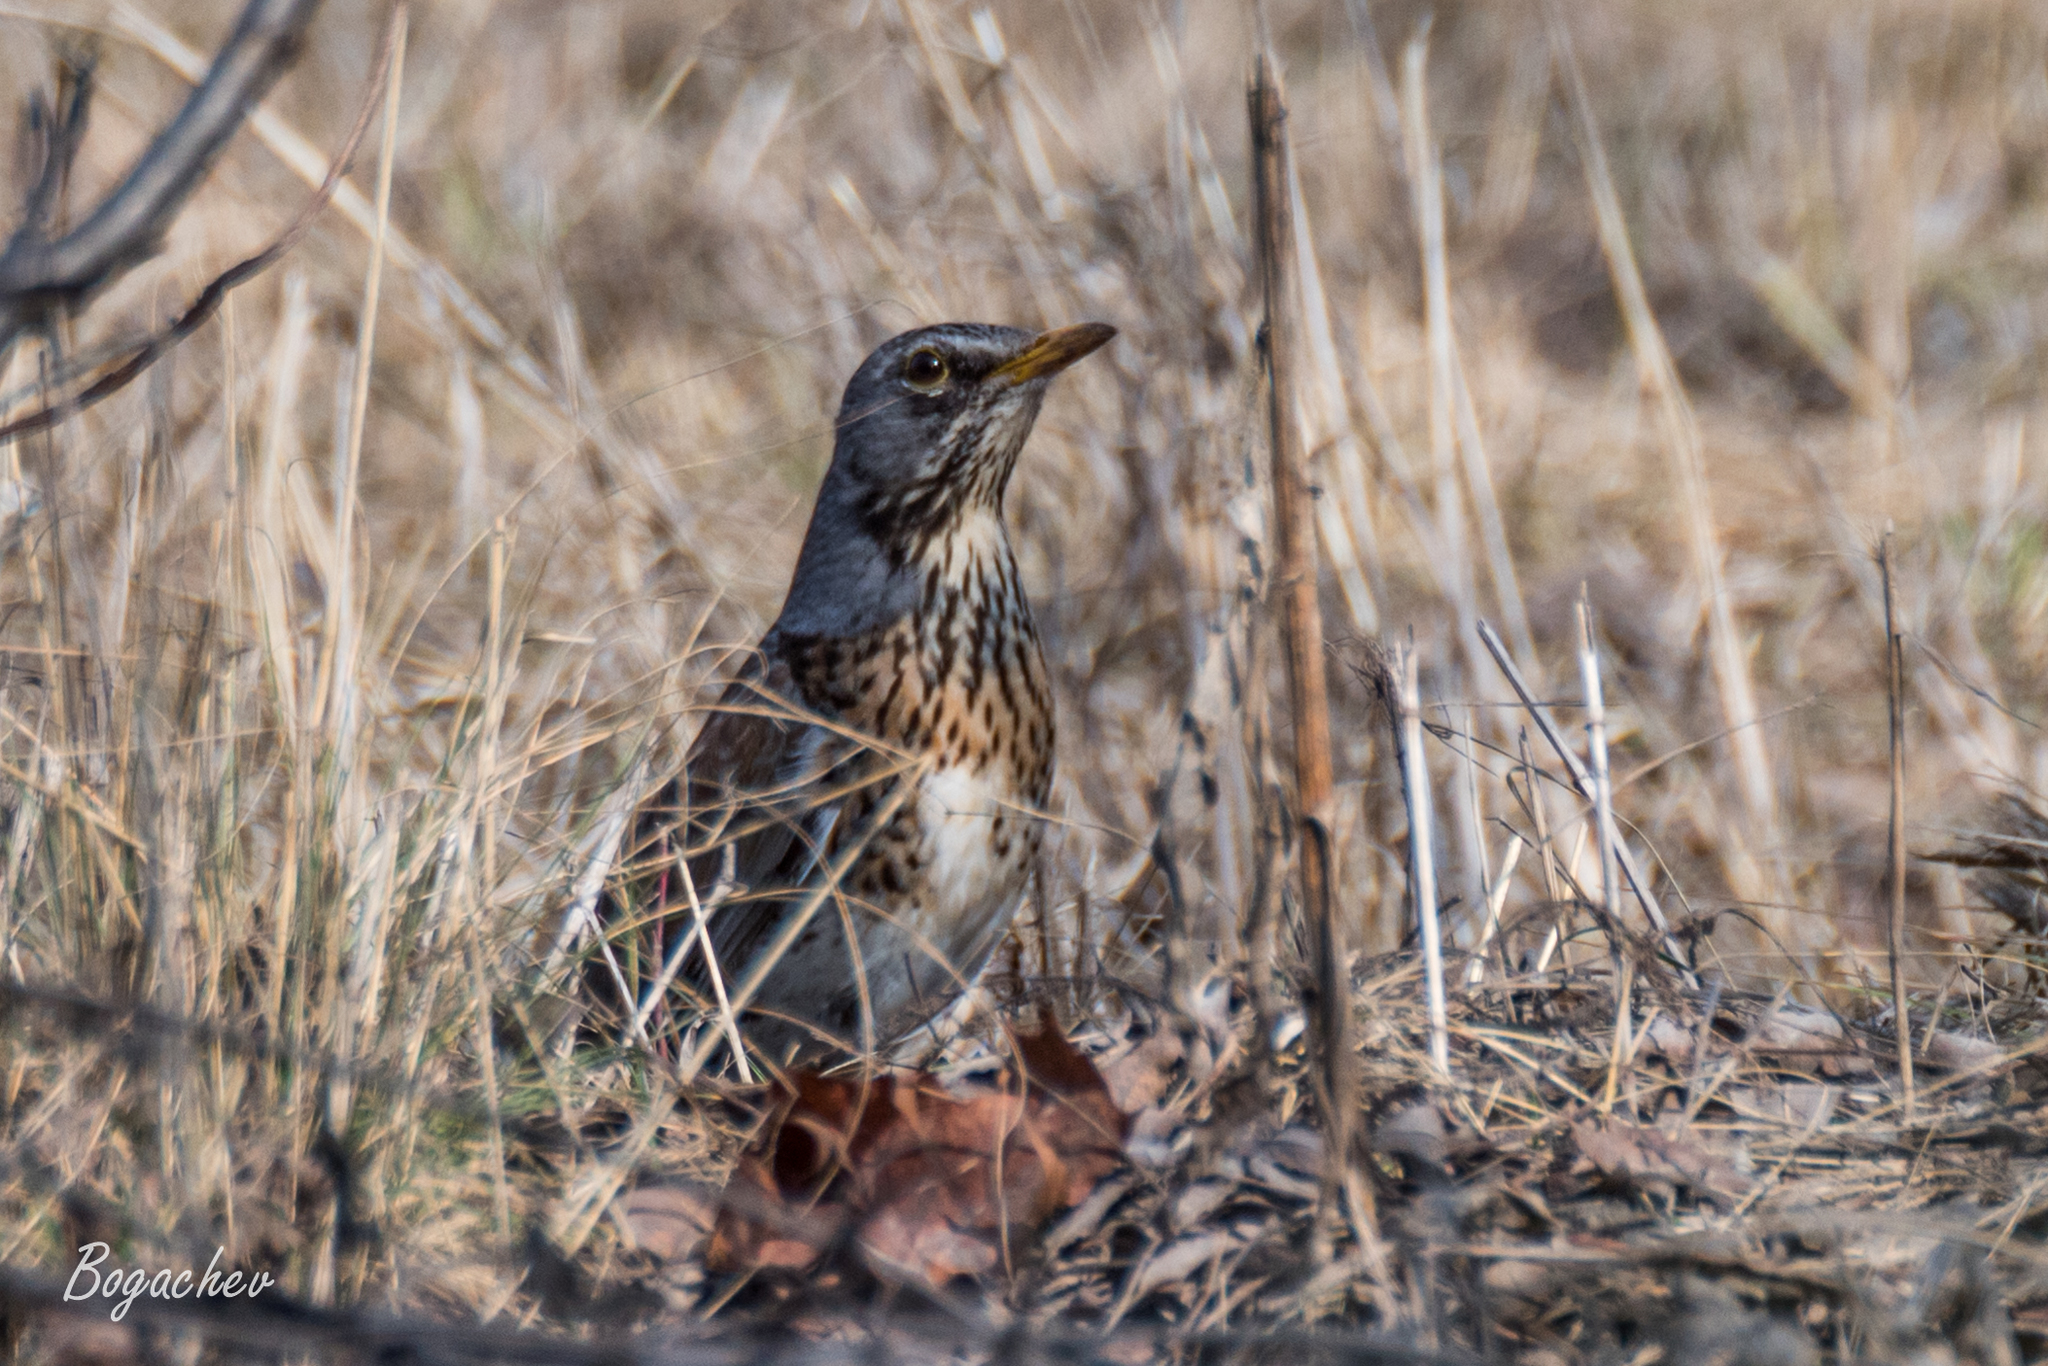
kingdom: Animalia
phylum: Chordata
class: Aves
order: Passeriformes
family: Turdidae
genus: Turdus
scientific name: Turdus pilaris
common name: Fieldfare
